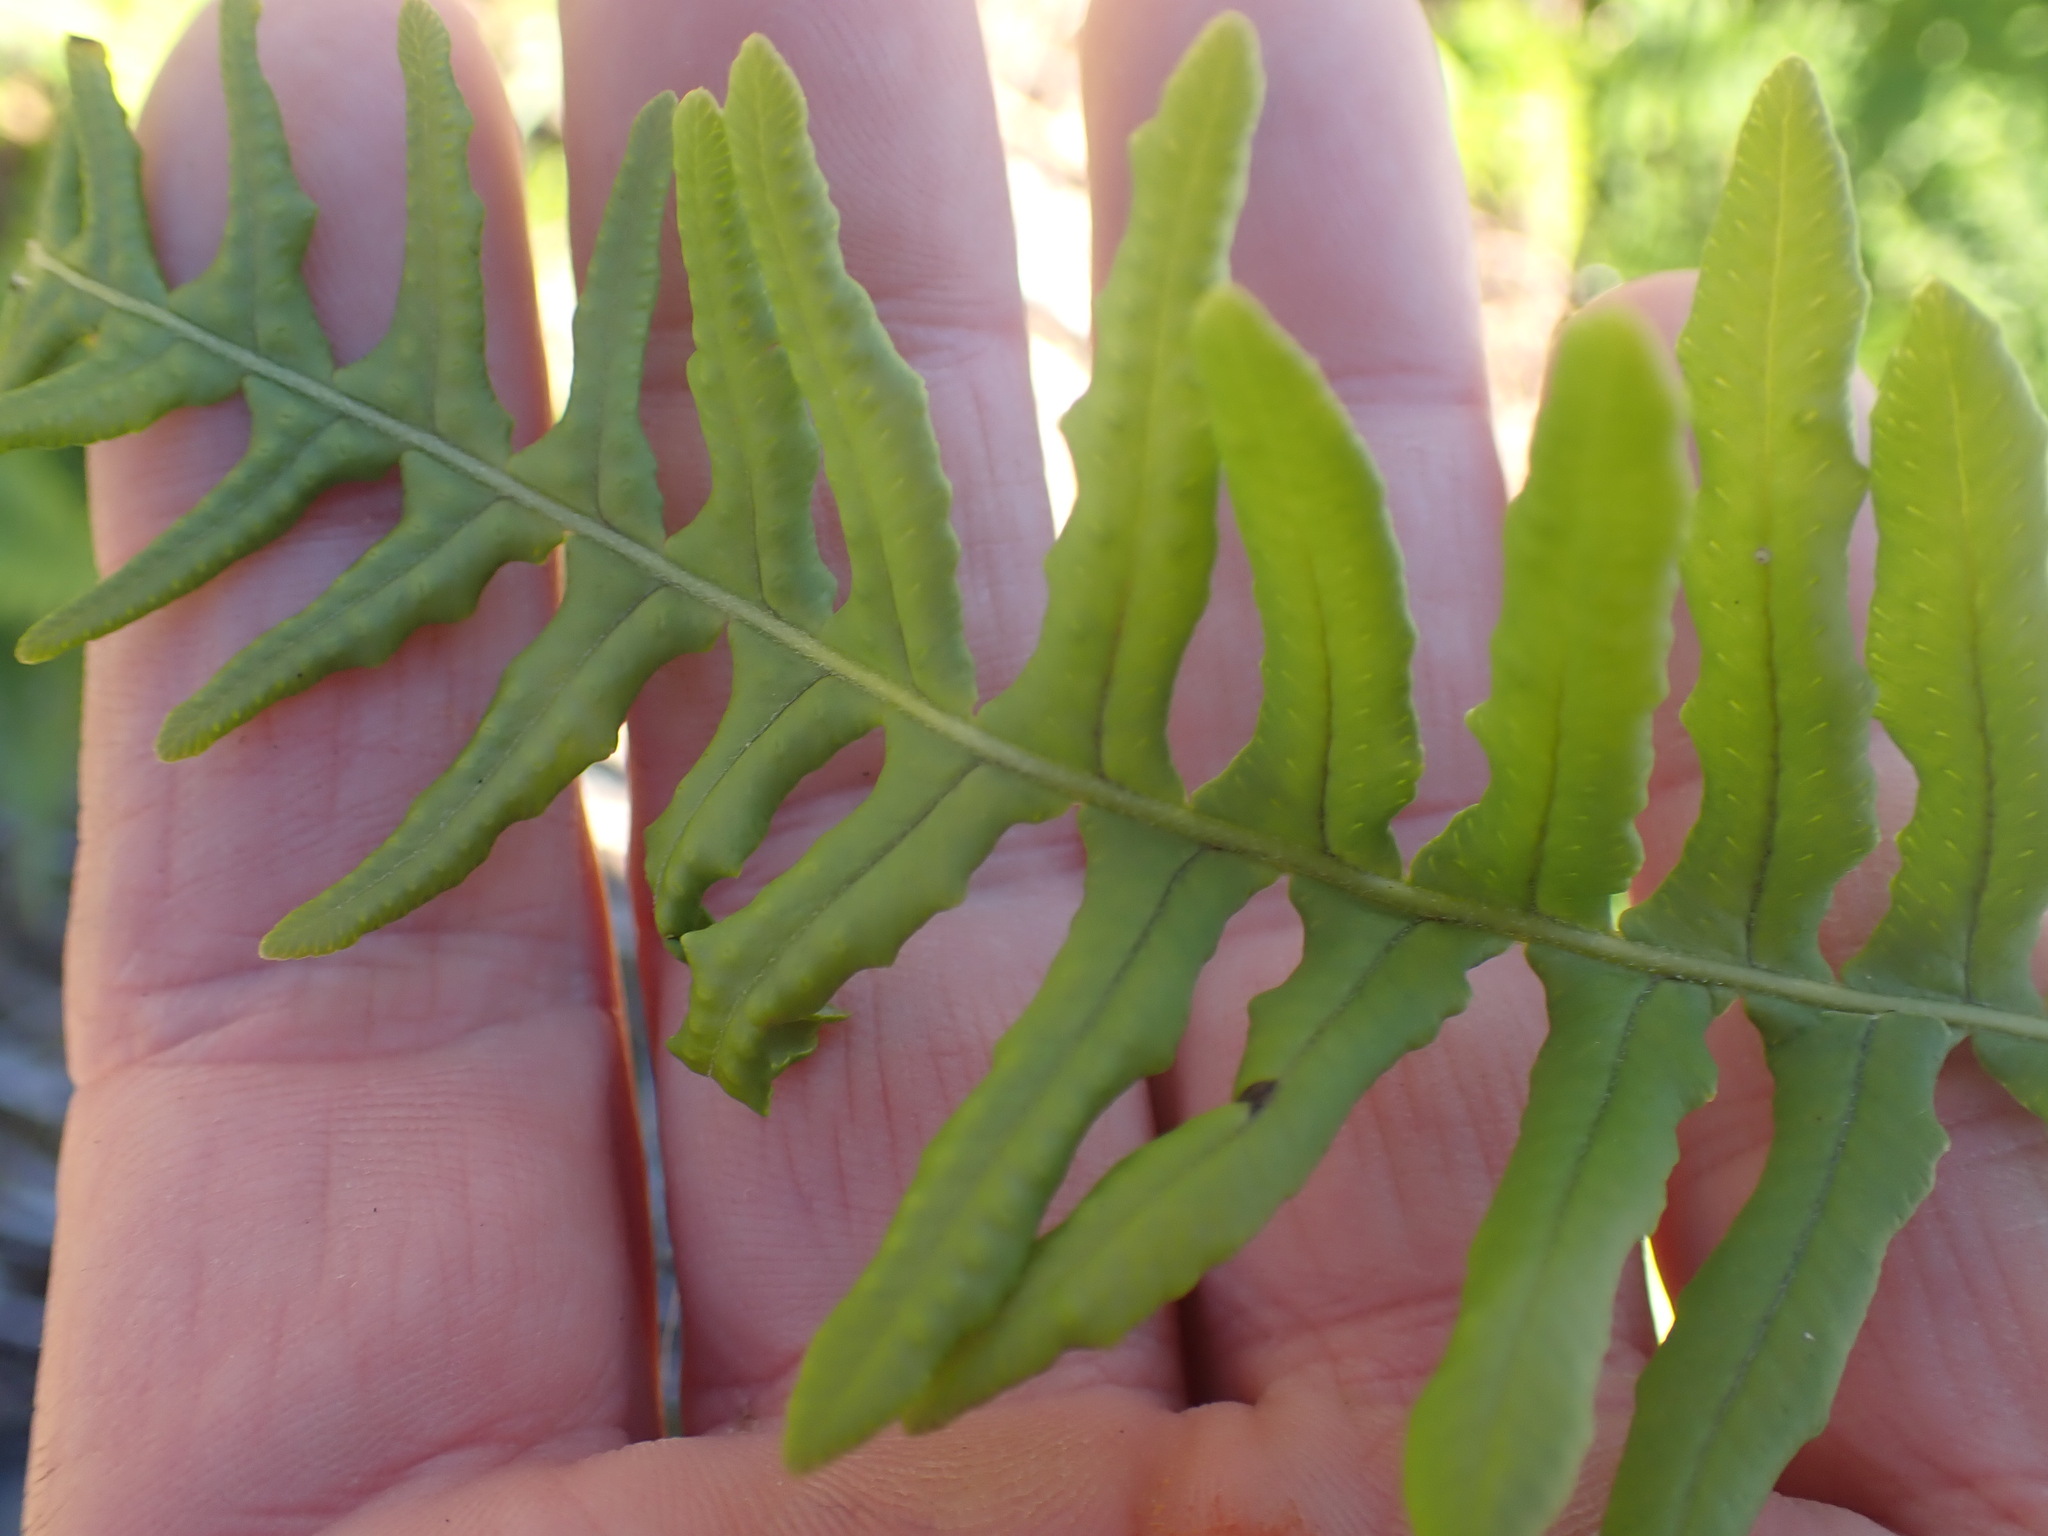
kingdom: Plantae
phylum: Tracheophyta
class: Polypodiopsida
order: Polypodiales
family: Polypodiaceae
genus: Polypodium
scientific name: Polypodium glycyrrhiza
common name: Licorice fern
